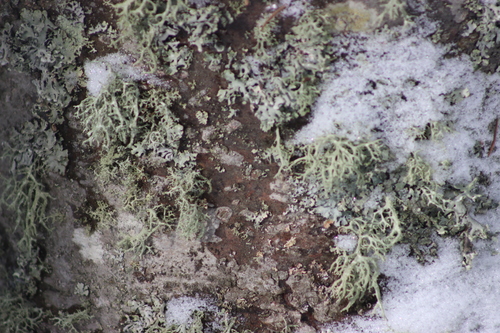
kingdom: Fungi
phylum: Ascomycota
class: Lecanoromycetes
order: Lecanorales
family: Parmeliaceae
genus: Evernia
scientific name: Evernia mesomorpha
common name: Boreal oak moss lichen
